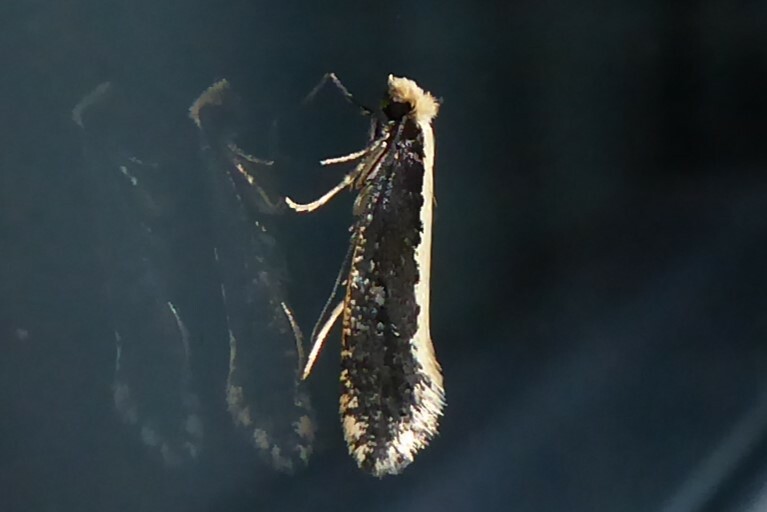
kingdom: Animalia
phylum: Arthropoda
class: Insecta
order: Lepidoptera
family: Tineidae
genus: Monopis
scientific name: Monopis ethelella
